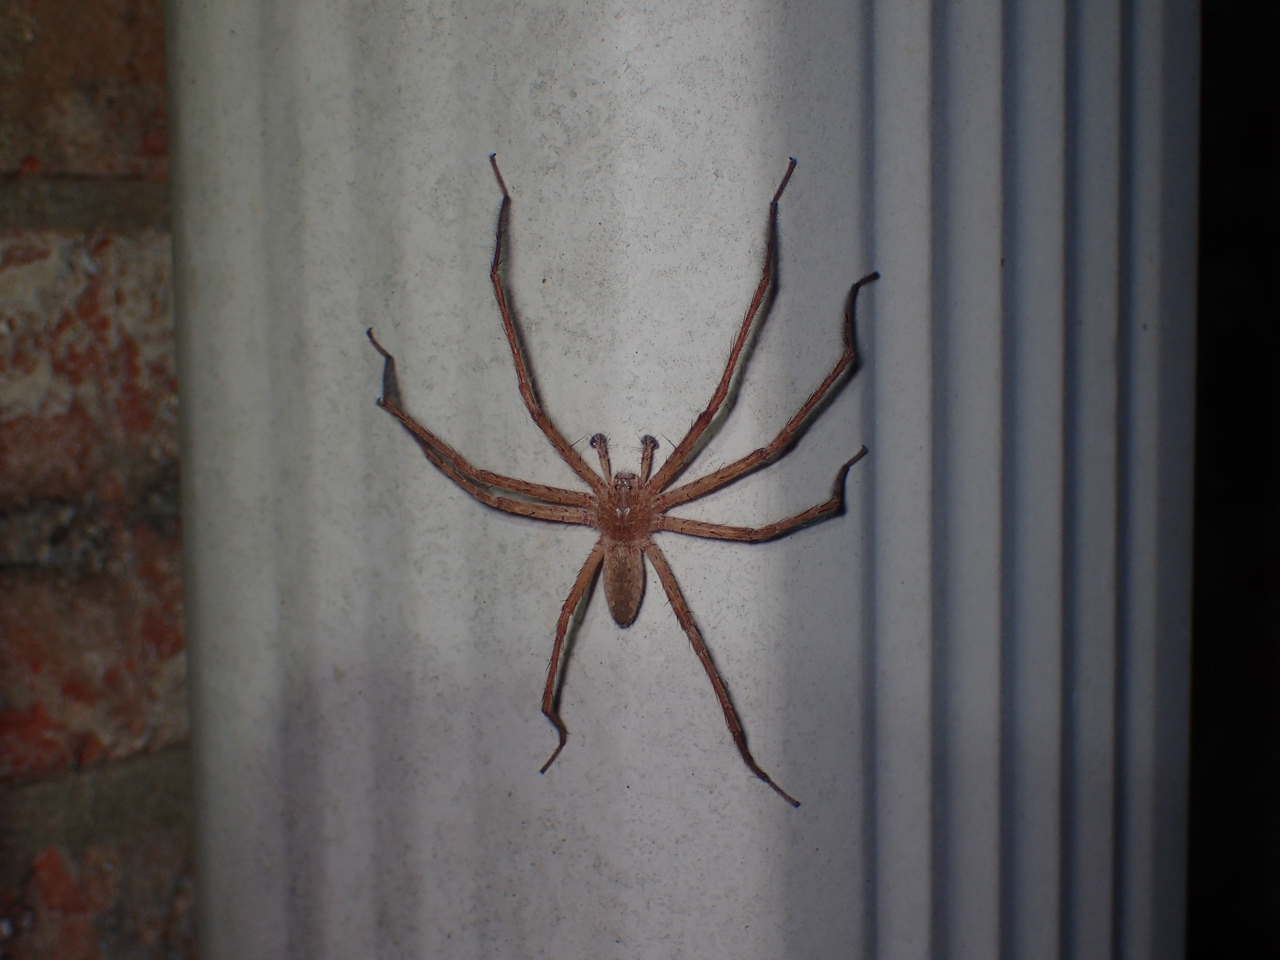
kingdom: Animalia
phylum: Arthropoda
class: Arachnida
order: Araneae
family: Pisauridae
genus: Pisaurina
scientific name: Pisaurina mira
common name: American nursery web spider
